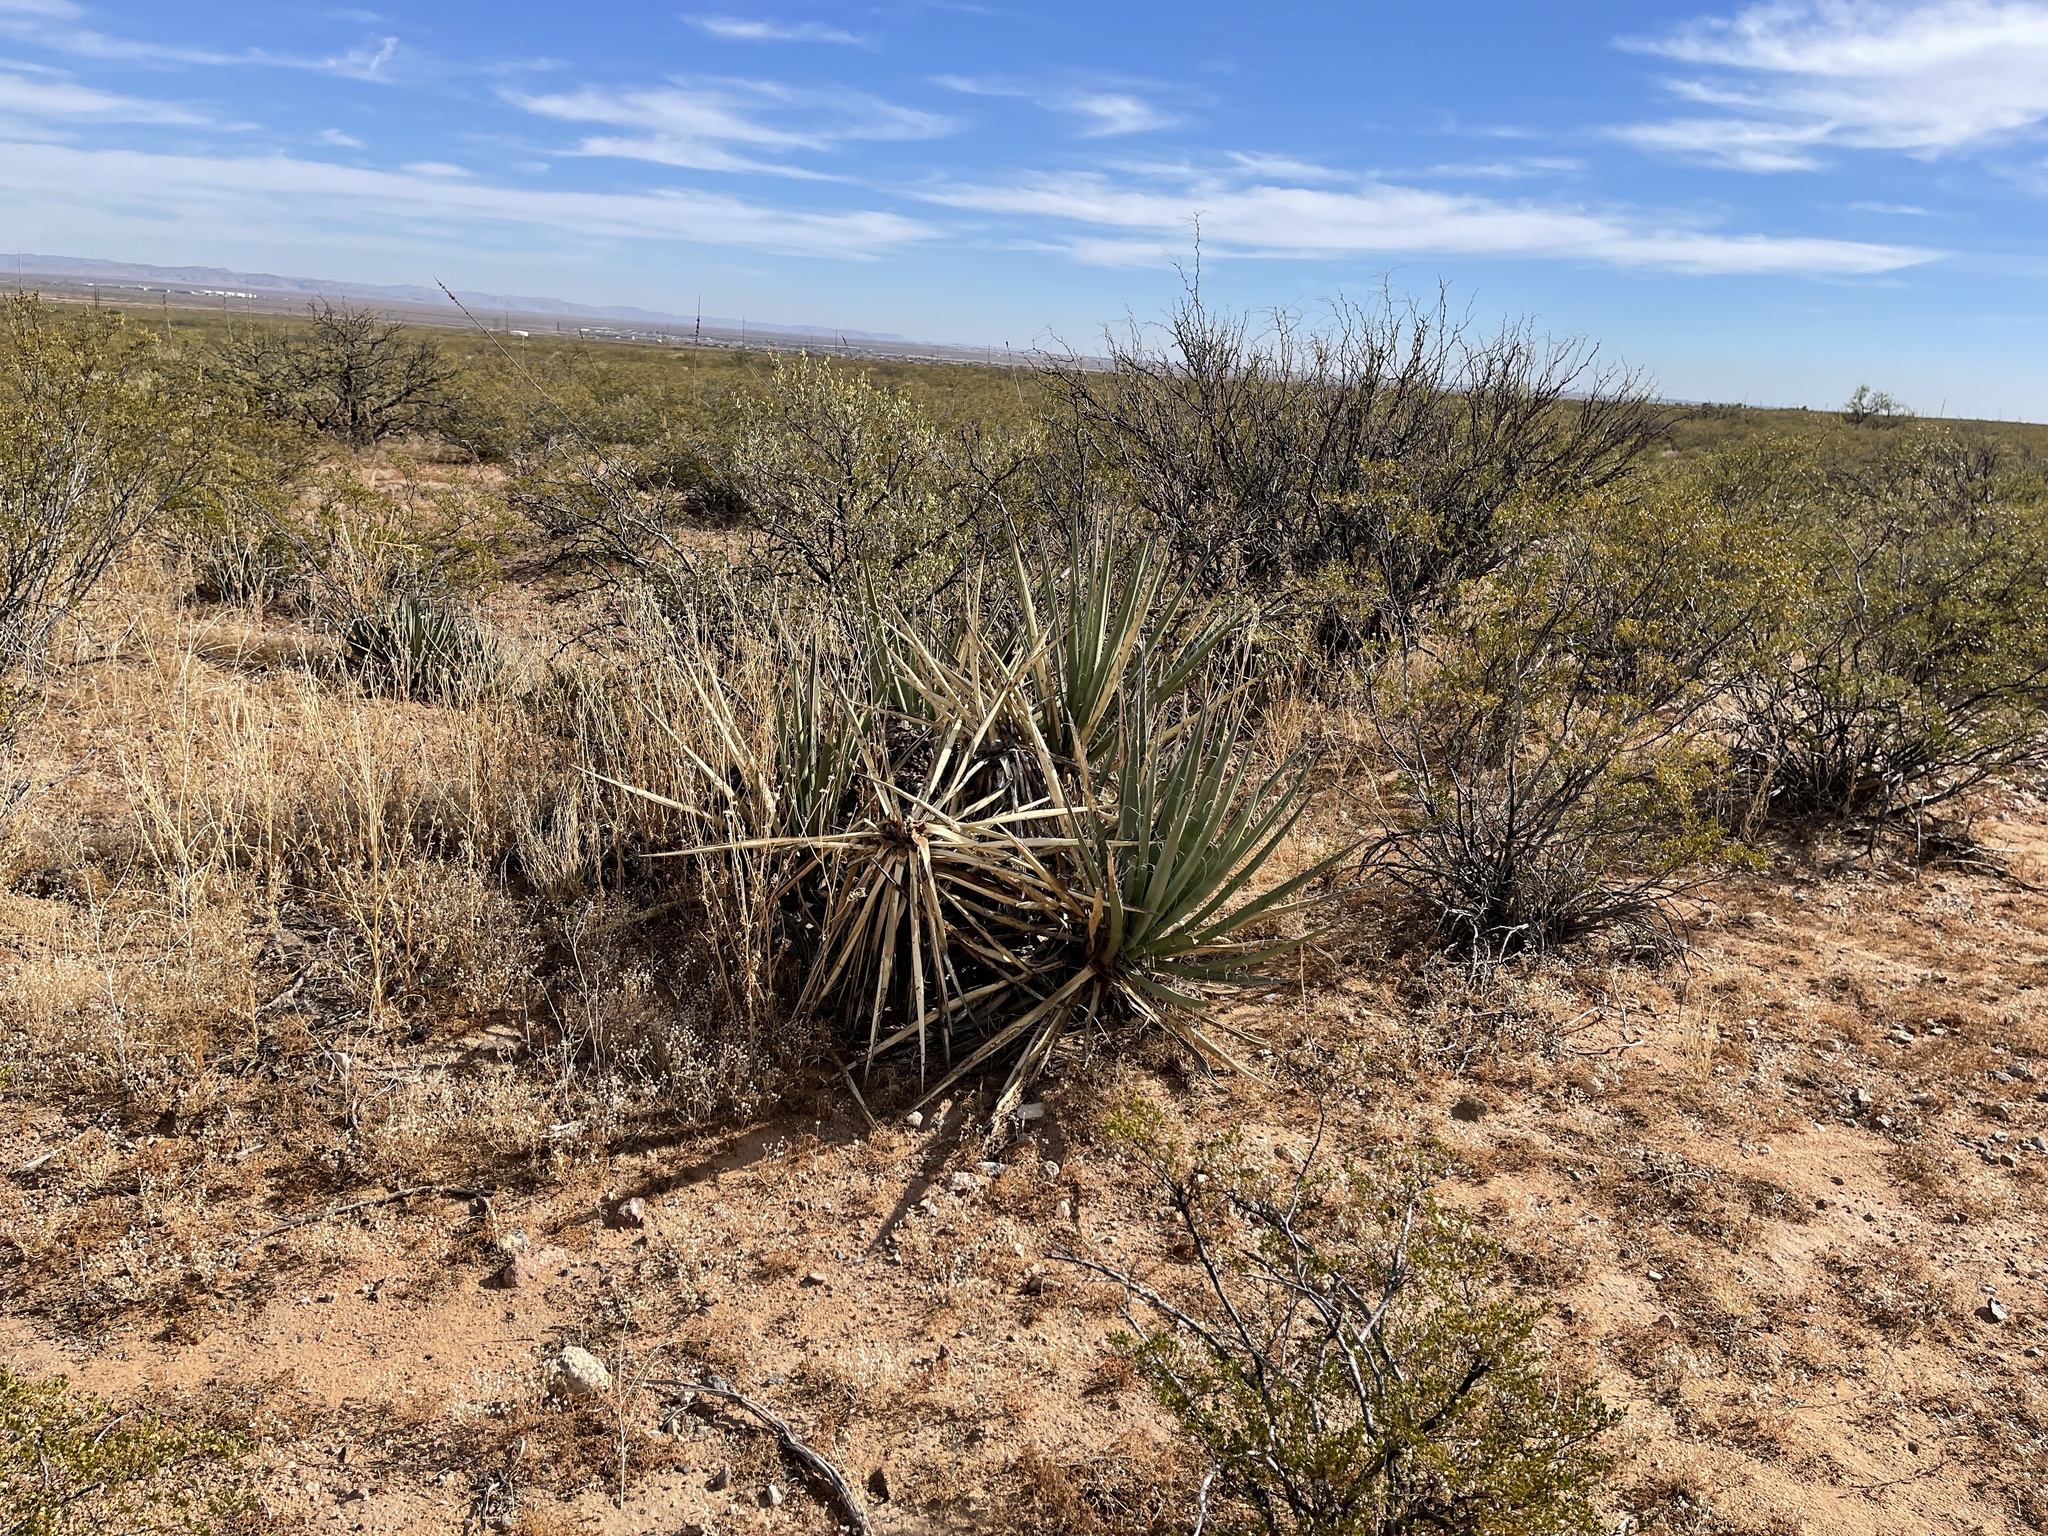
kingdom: Plantae
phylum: Tracheophyta
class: Liliopsida
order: Asparagales
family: Asparagaceae
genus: Yucca
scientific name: Yucca baccata
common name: Banana yucca
